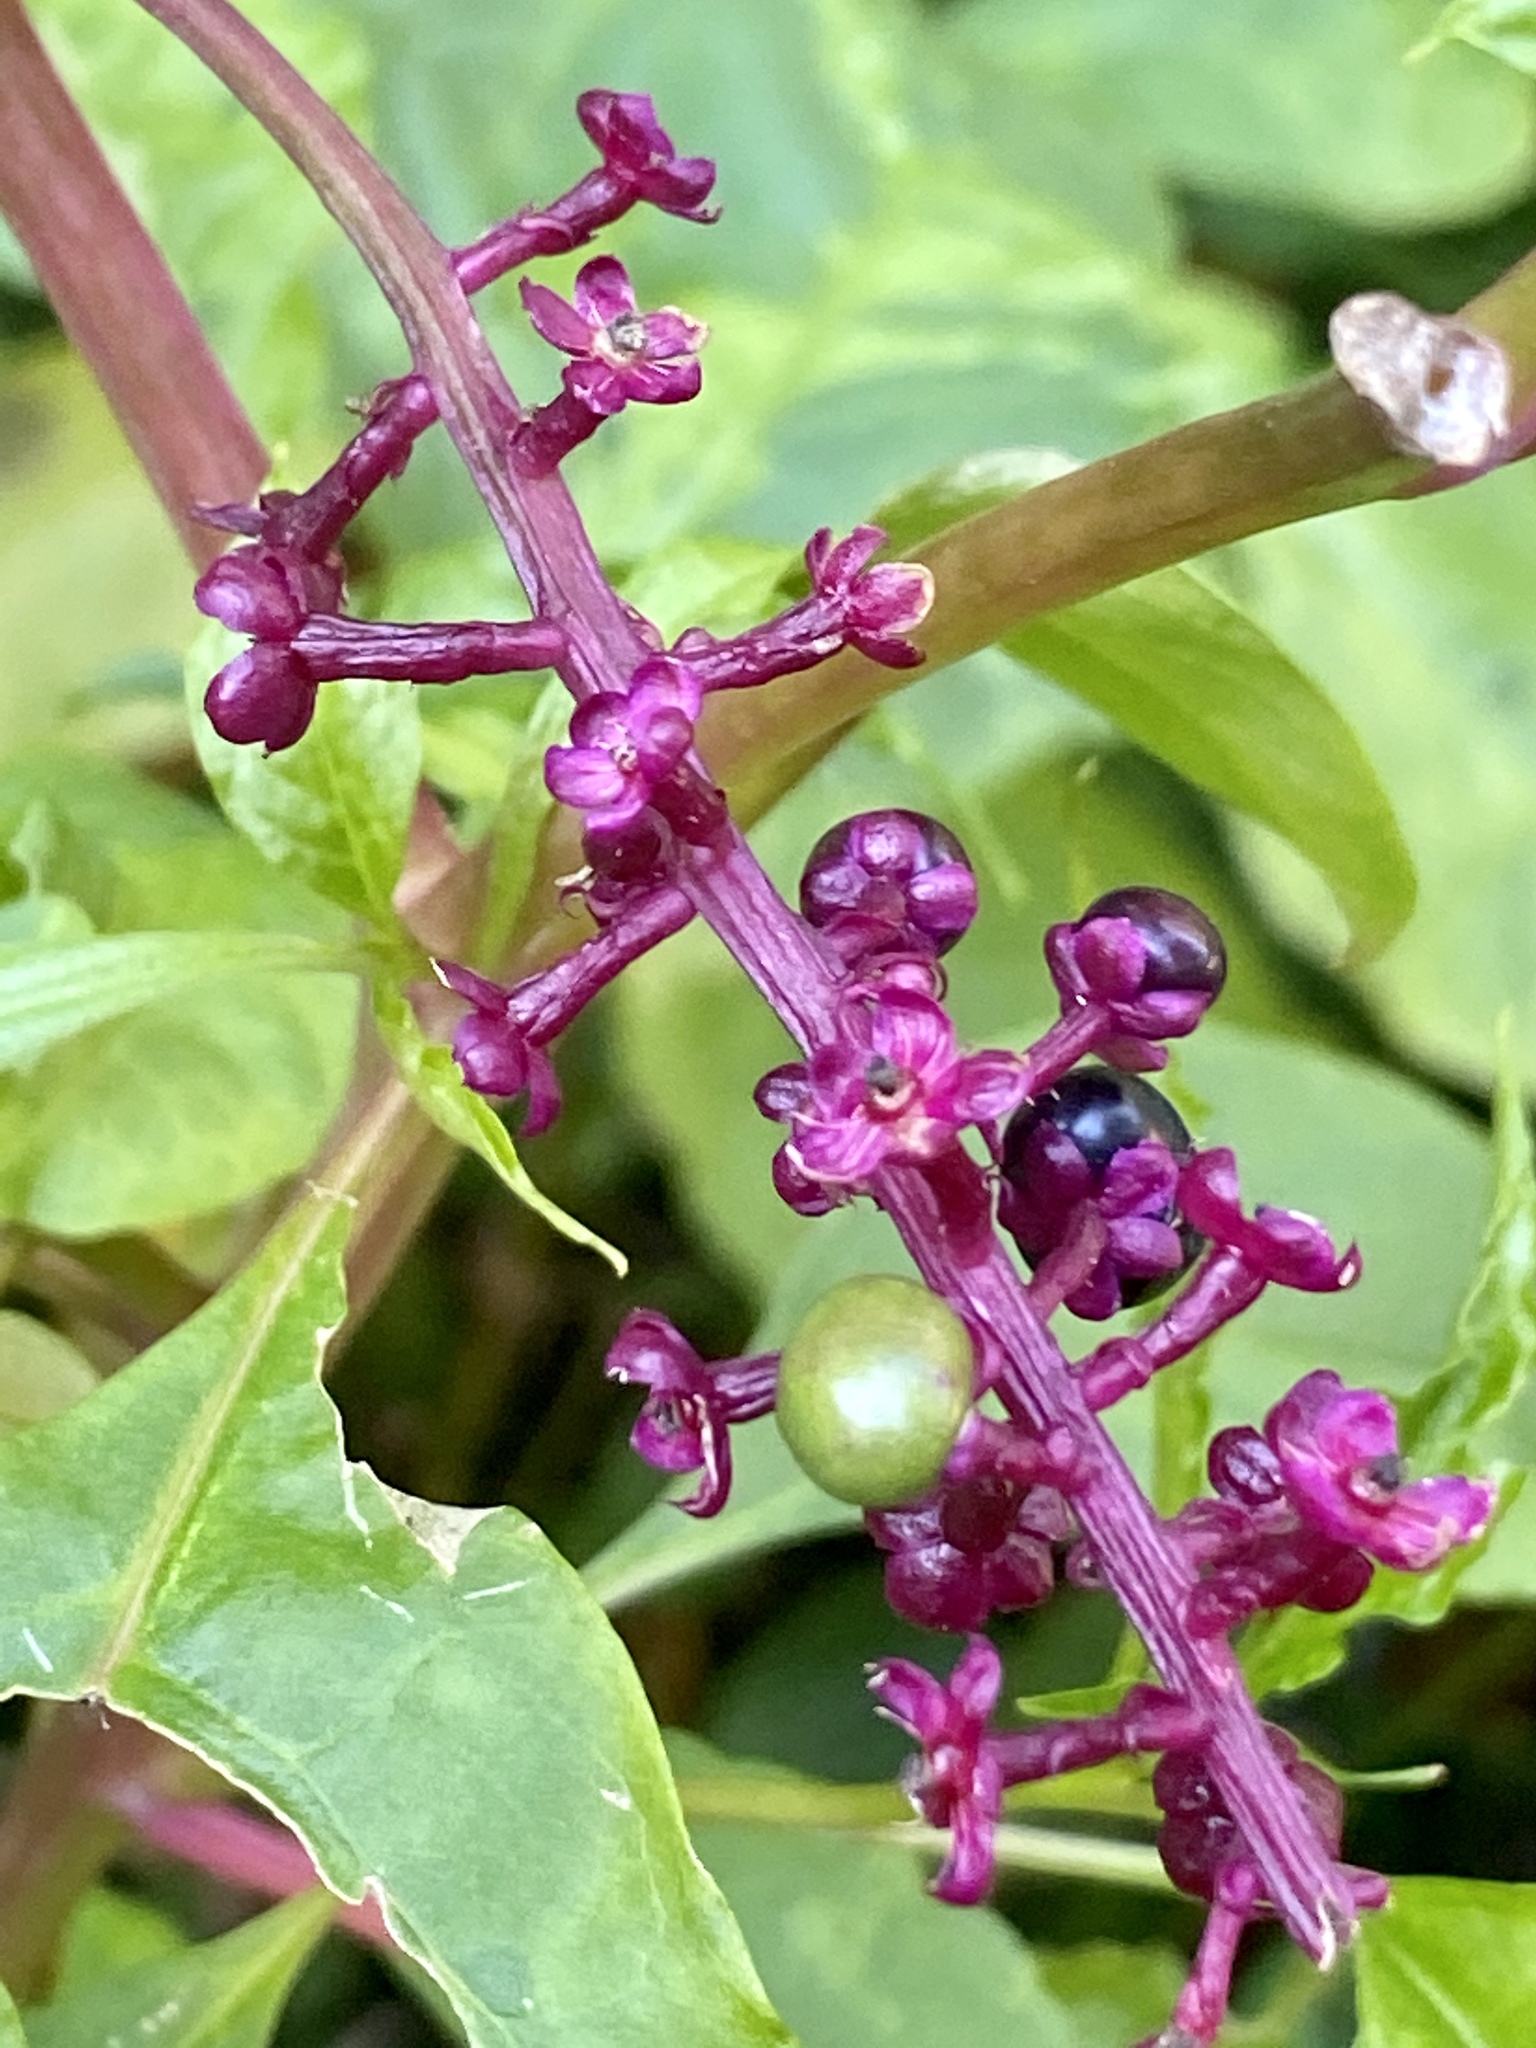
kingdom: Plantae
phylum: Tracheophyta
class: Magnoliopsida
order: Caryophyllales
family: Phytolaccaceae
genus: Phytolacca
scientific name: Phytolacca americana
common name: American pokeweed
